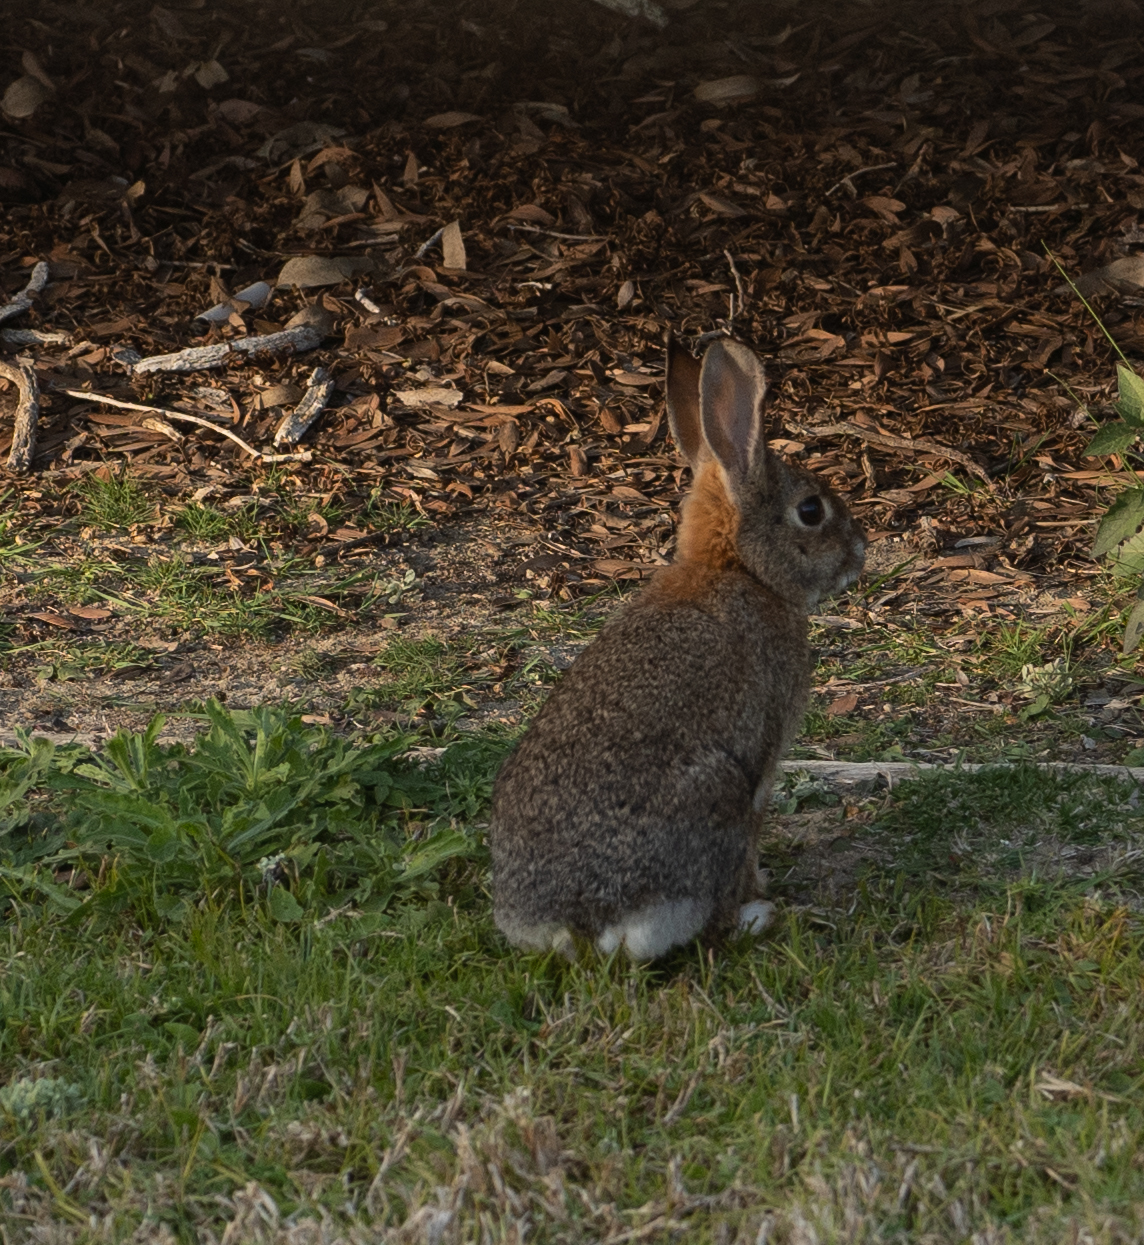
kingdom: Animalia
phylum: Chordata
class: Mammalia
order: Lagomorpha
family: Leporidae
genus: Sylvilagus
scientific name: Sylvilagus audubonii
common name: Desert cottontail
